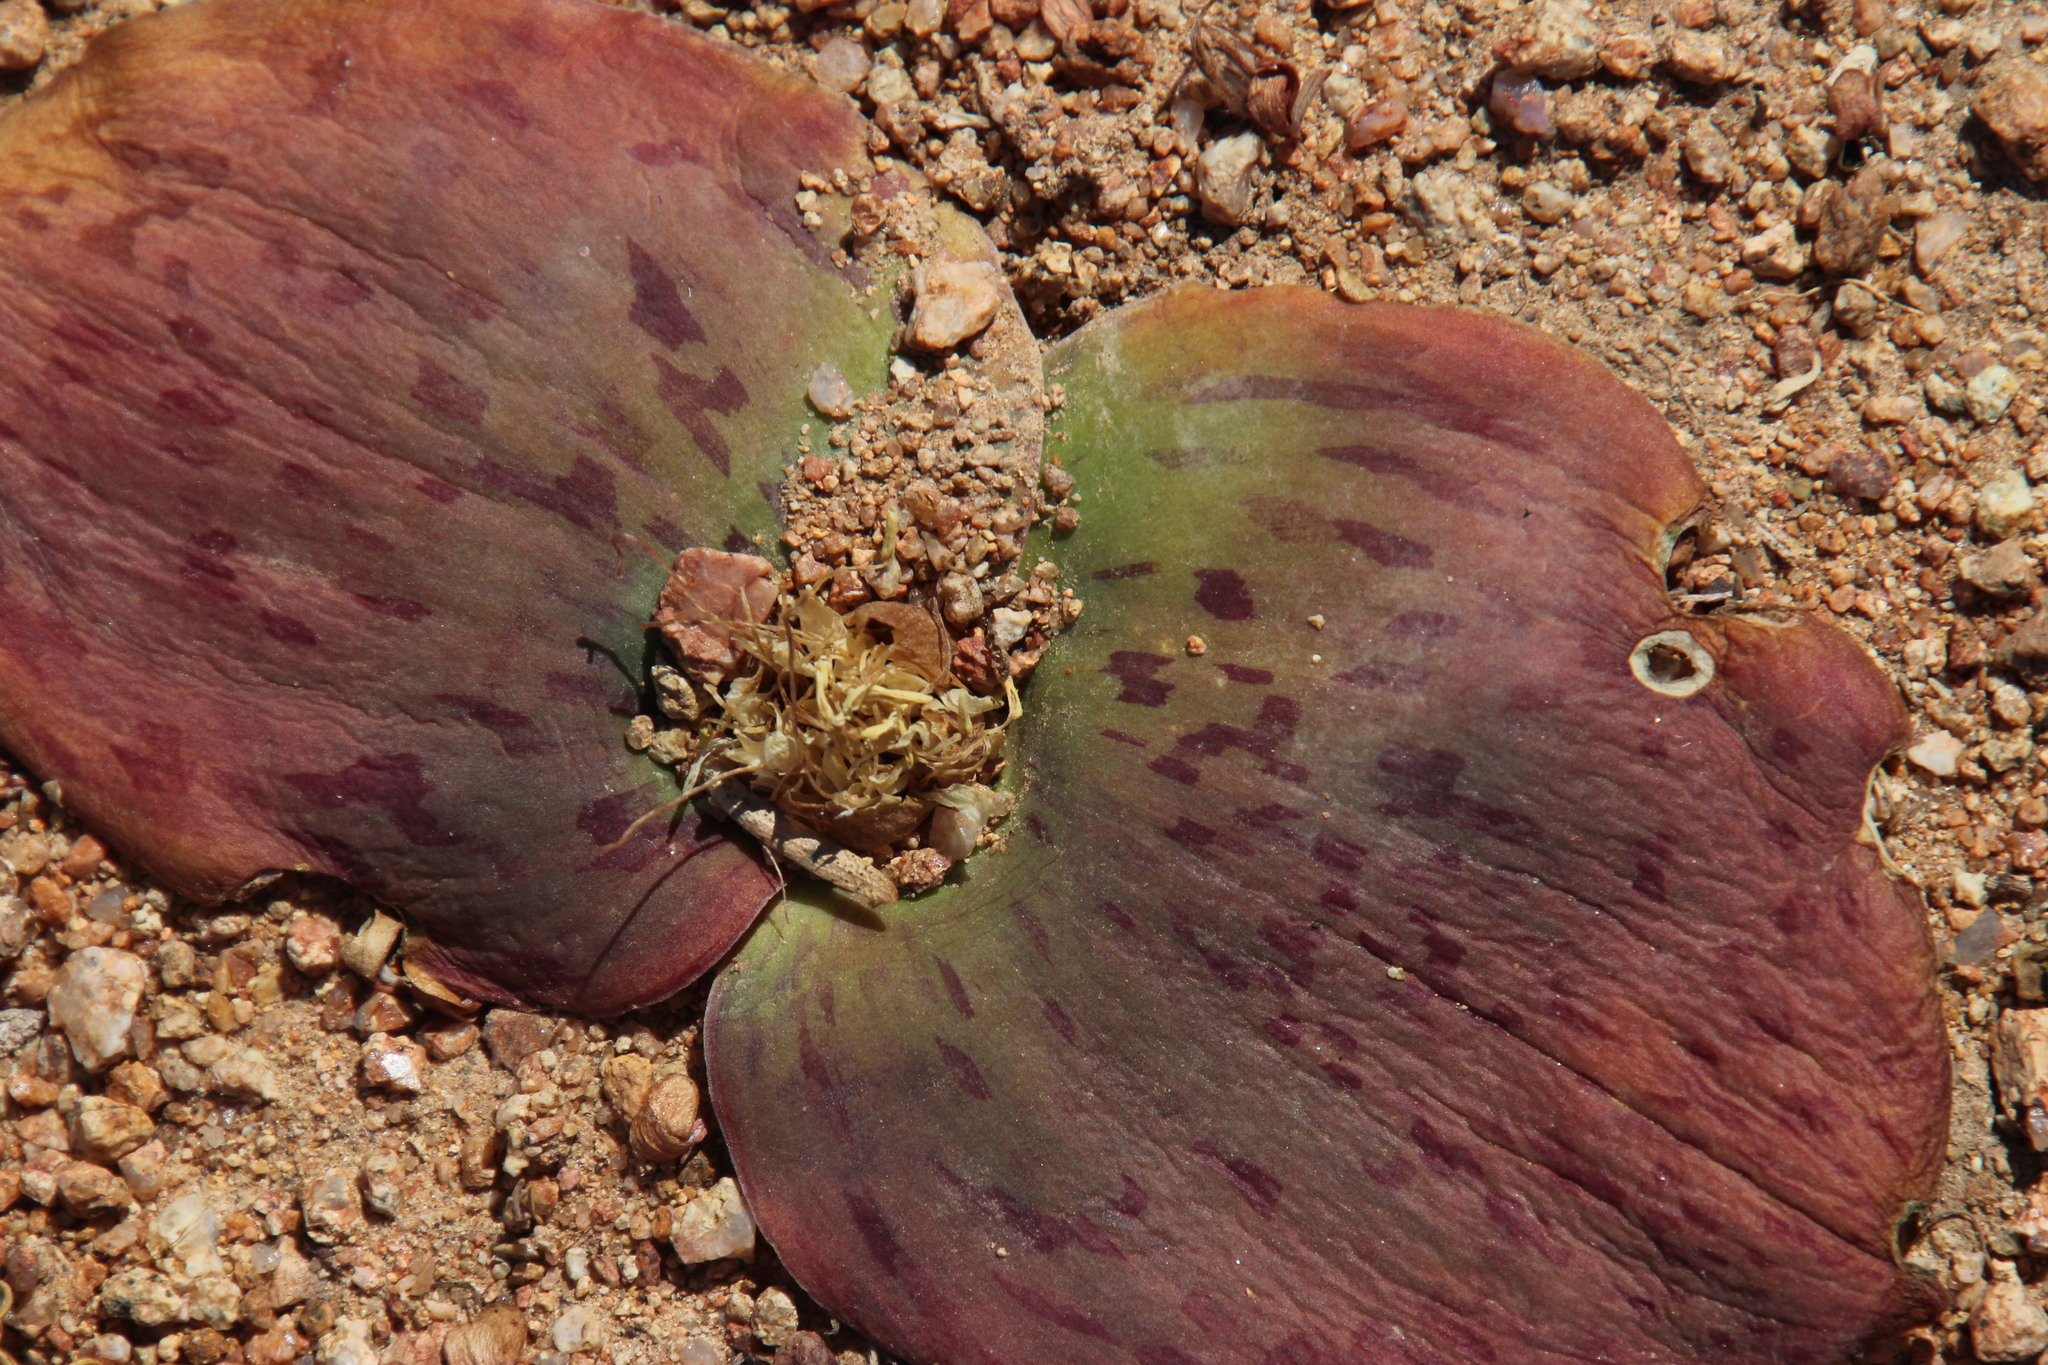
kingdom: Plantae
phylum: Tracheophyta
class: Liliopsida
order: Asparagales
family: Asparagaceae
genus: Massonia
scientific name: Massonia depressa
